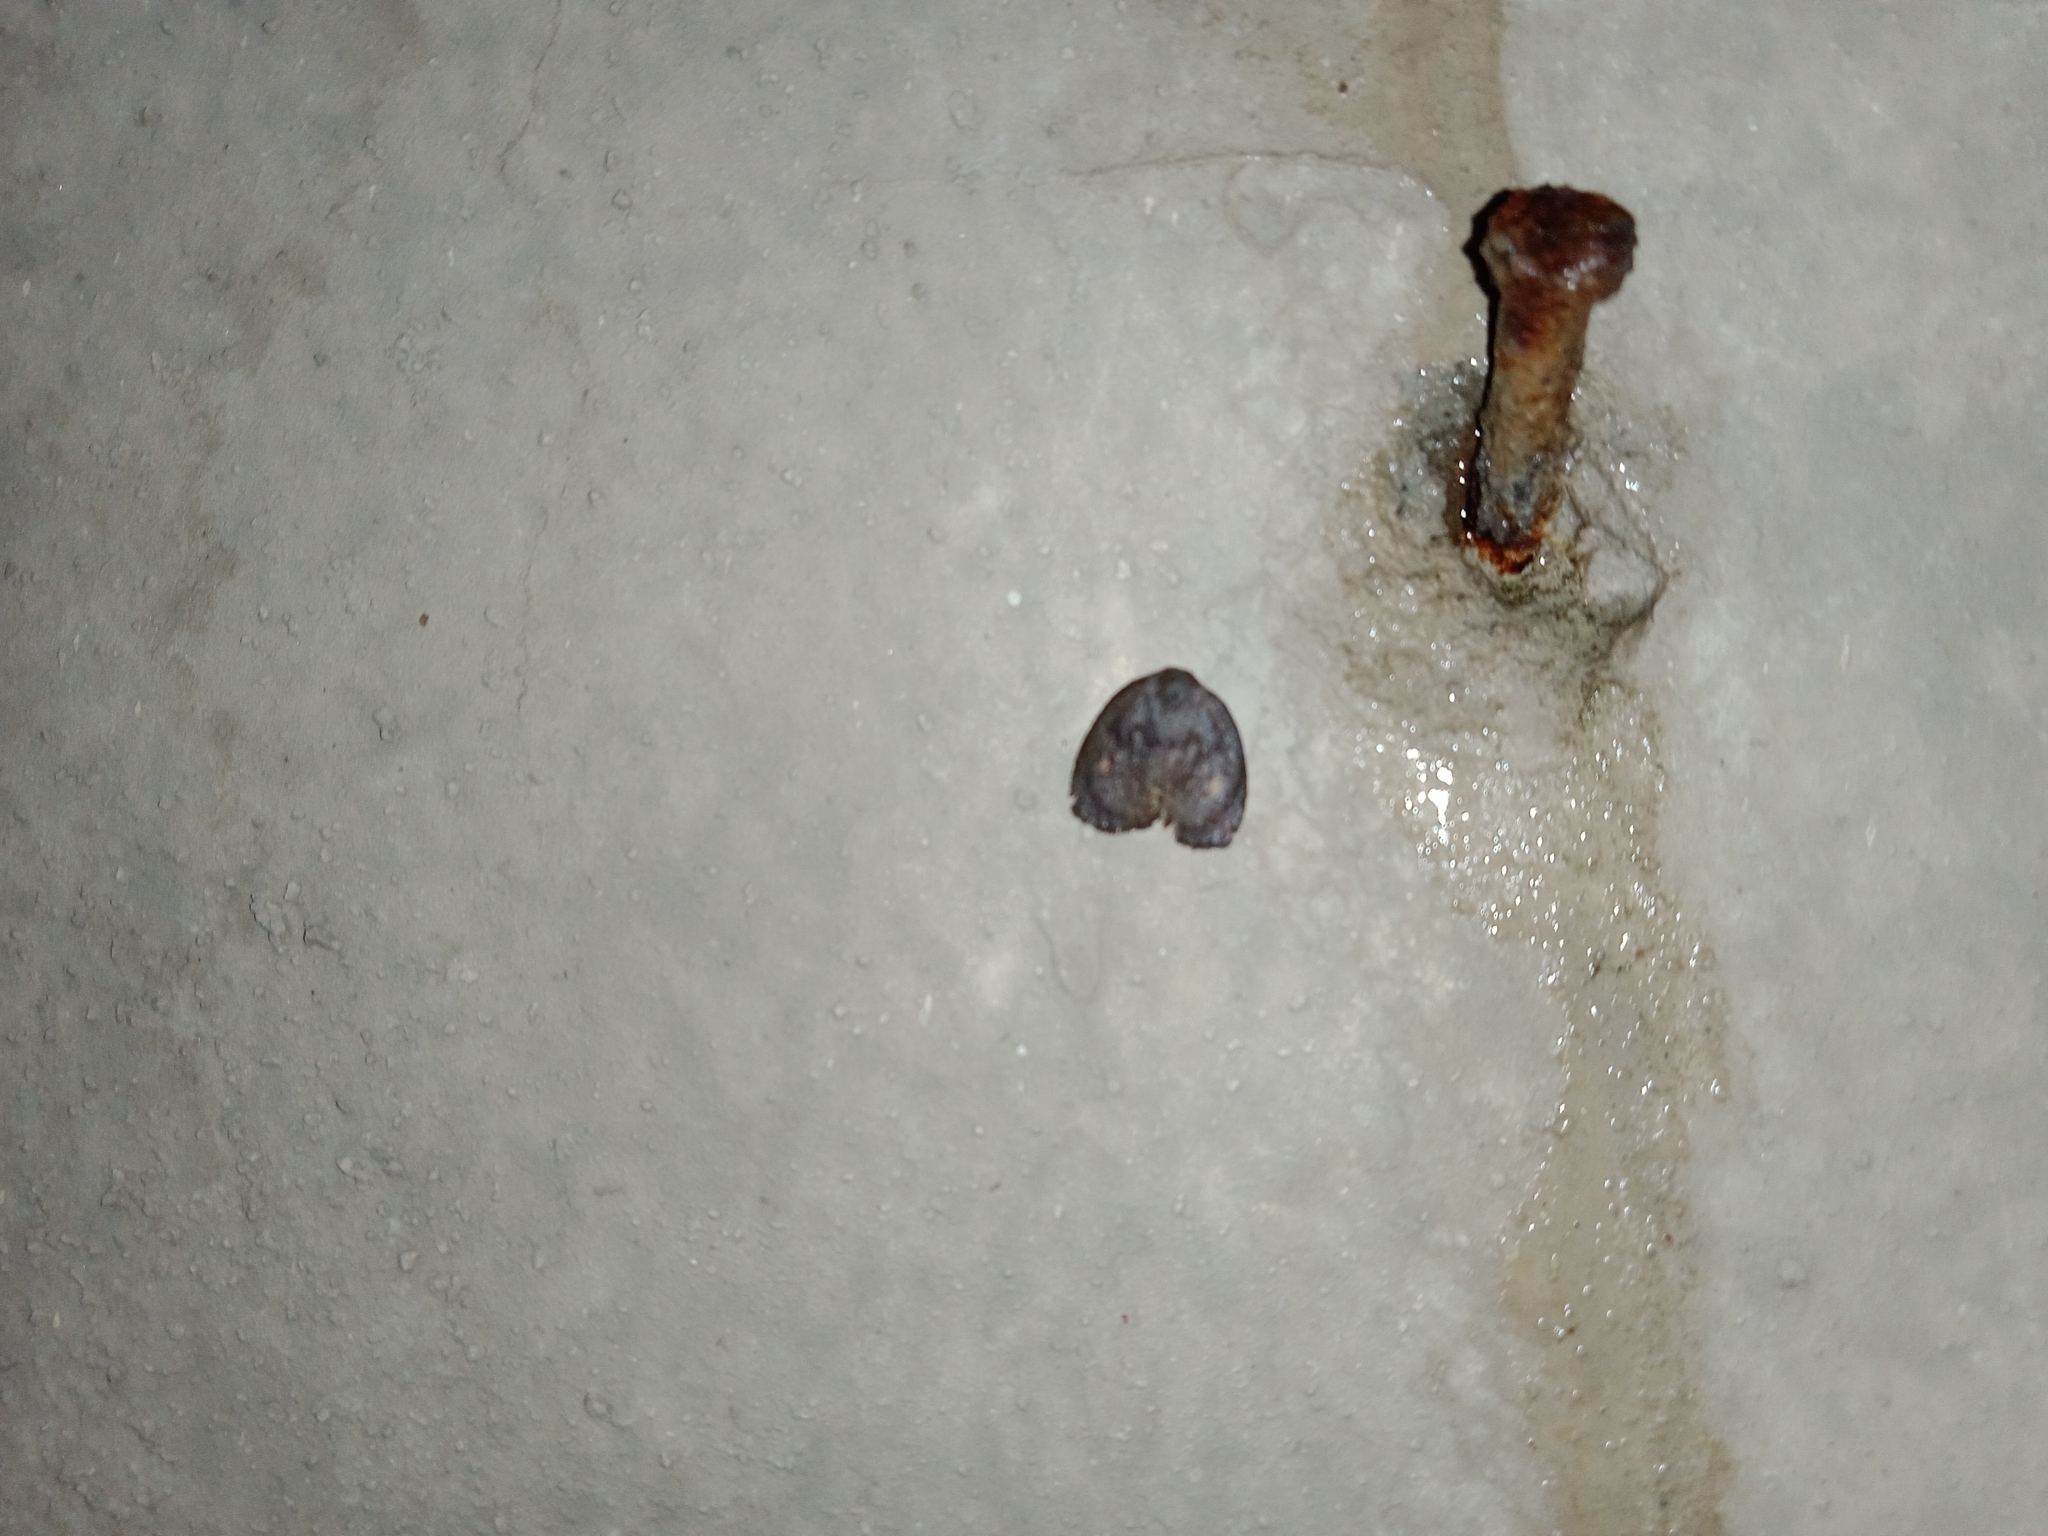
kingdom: Animalia
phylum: Arthropoda
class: Insecta
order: Lepidoptera
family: Erebidae
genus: Hemonia
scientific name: Hemonia orbiferana
